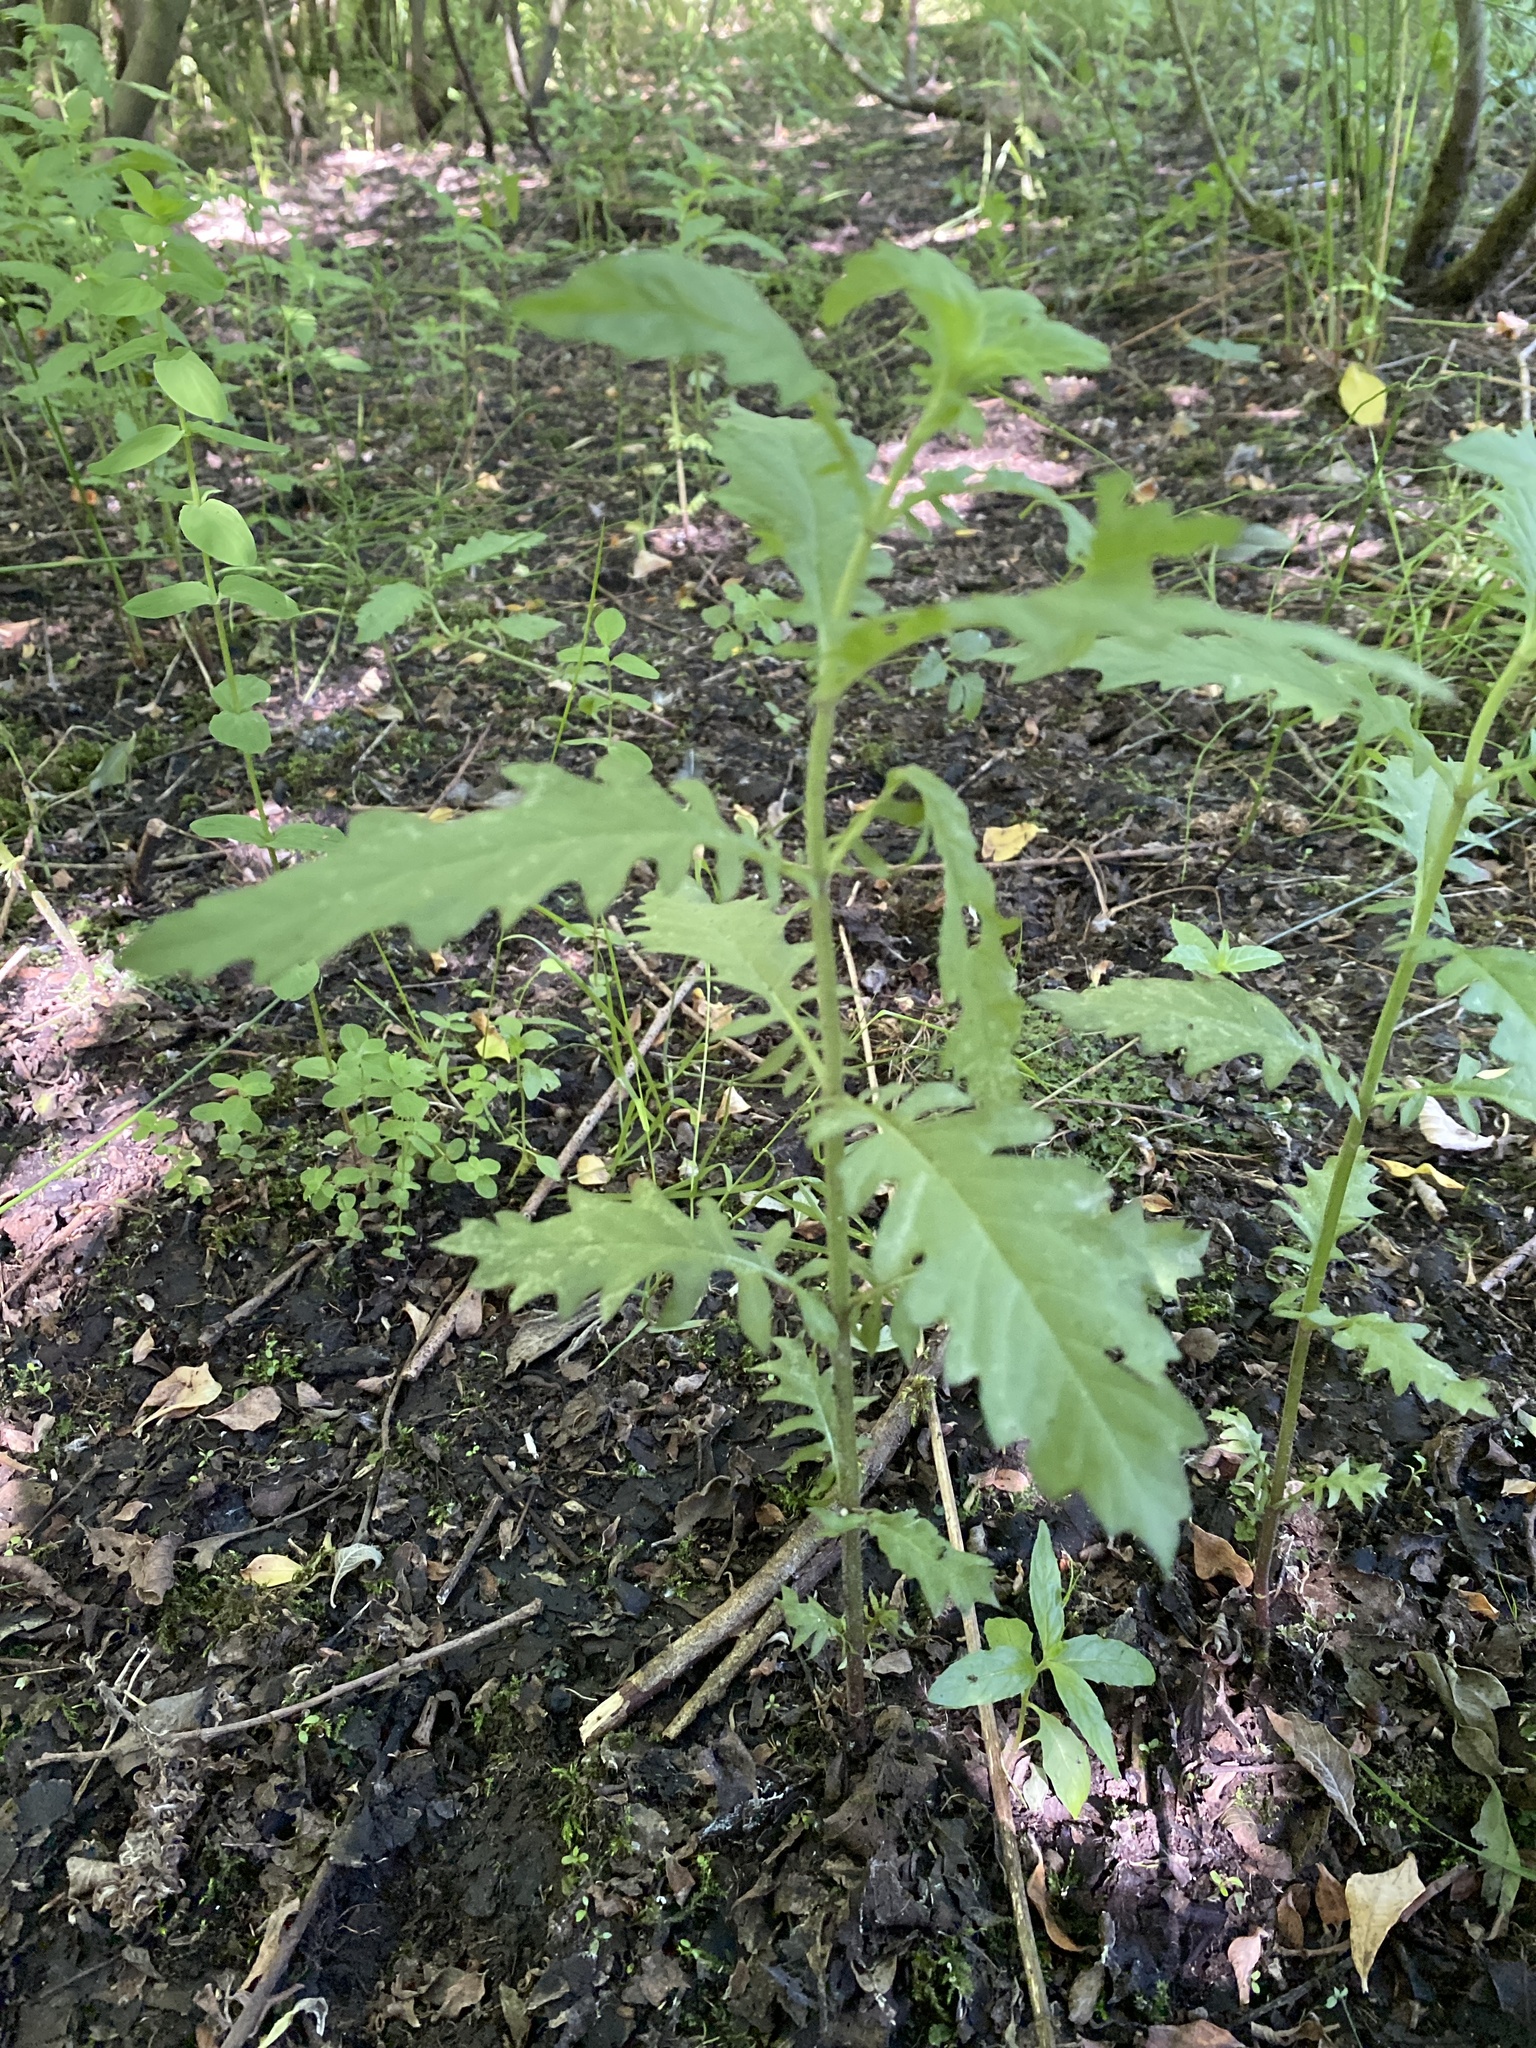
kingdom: Plantae
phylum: Tracheophyta
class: Magnoliopsida
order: Lamiales
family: Lamiaceae
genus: Lycopus
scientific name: Lycopus europaeus
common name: European bugleweed
